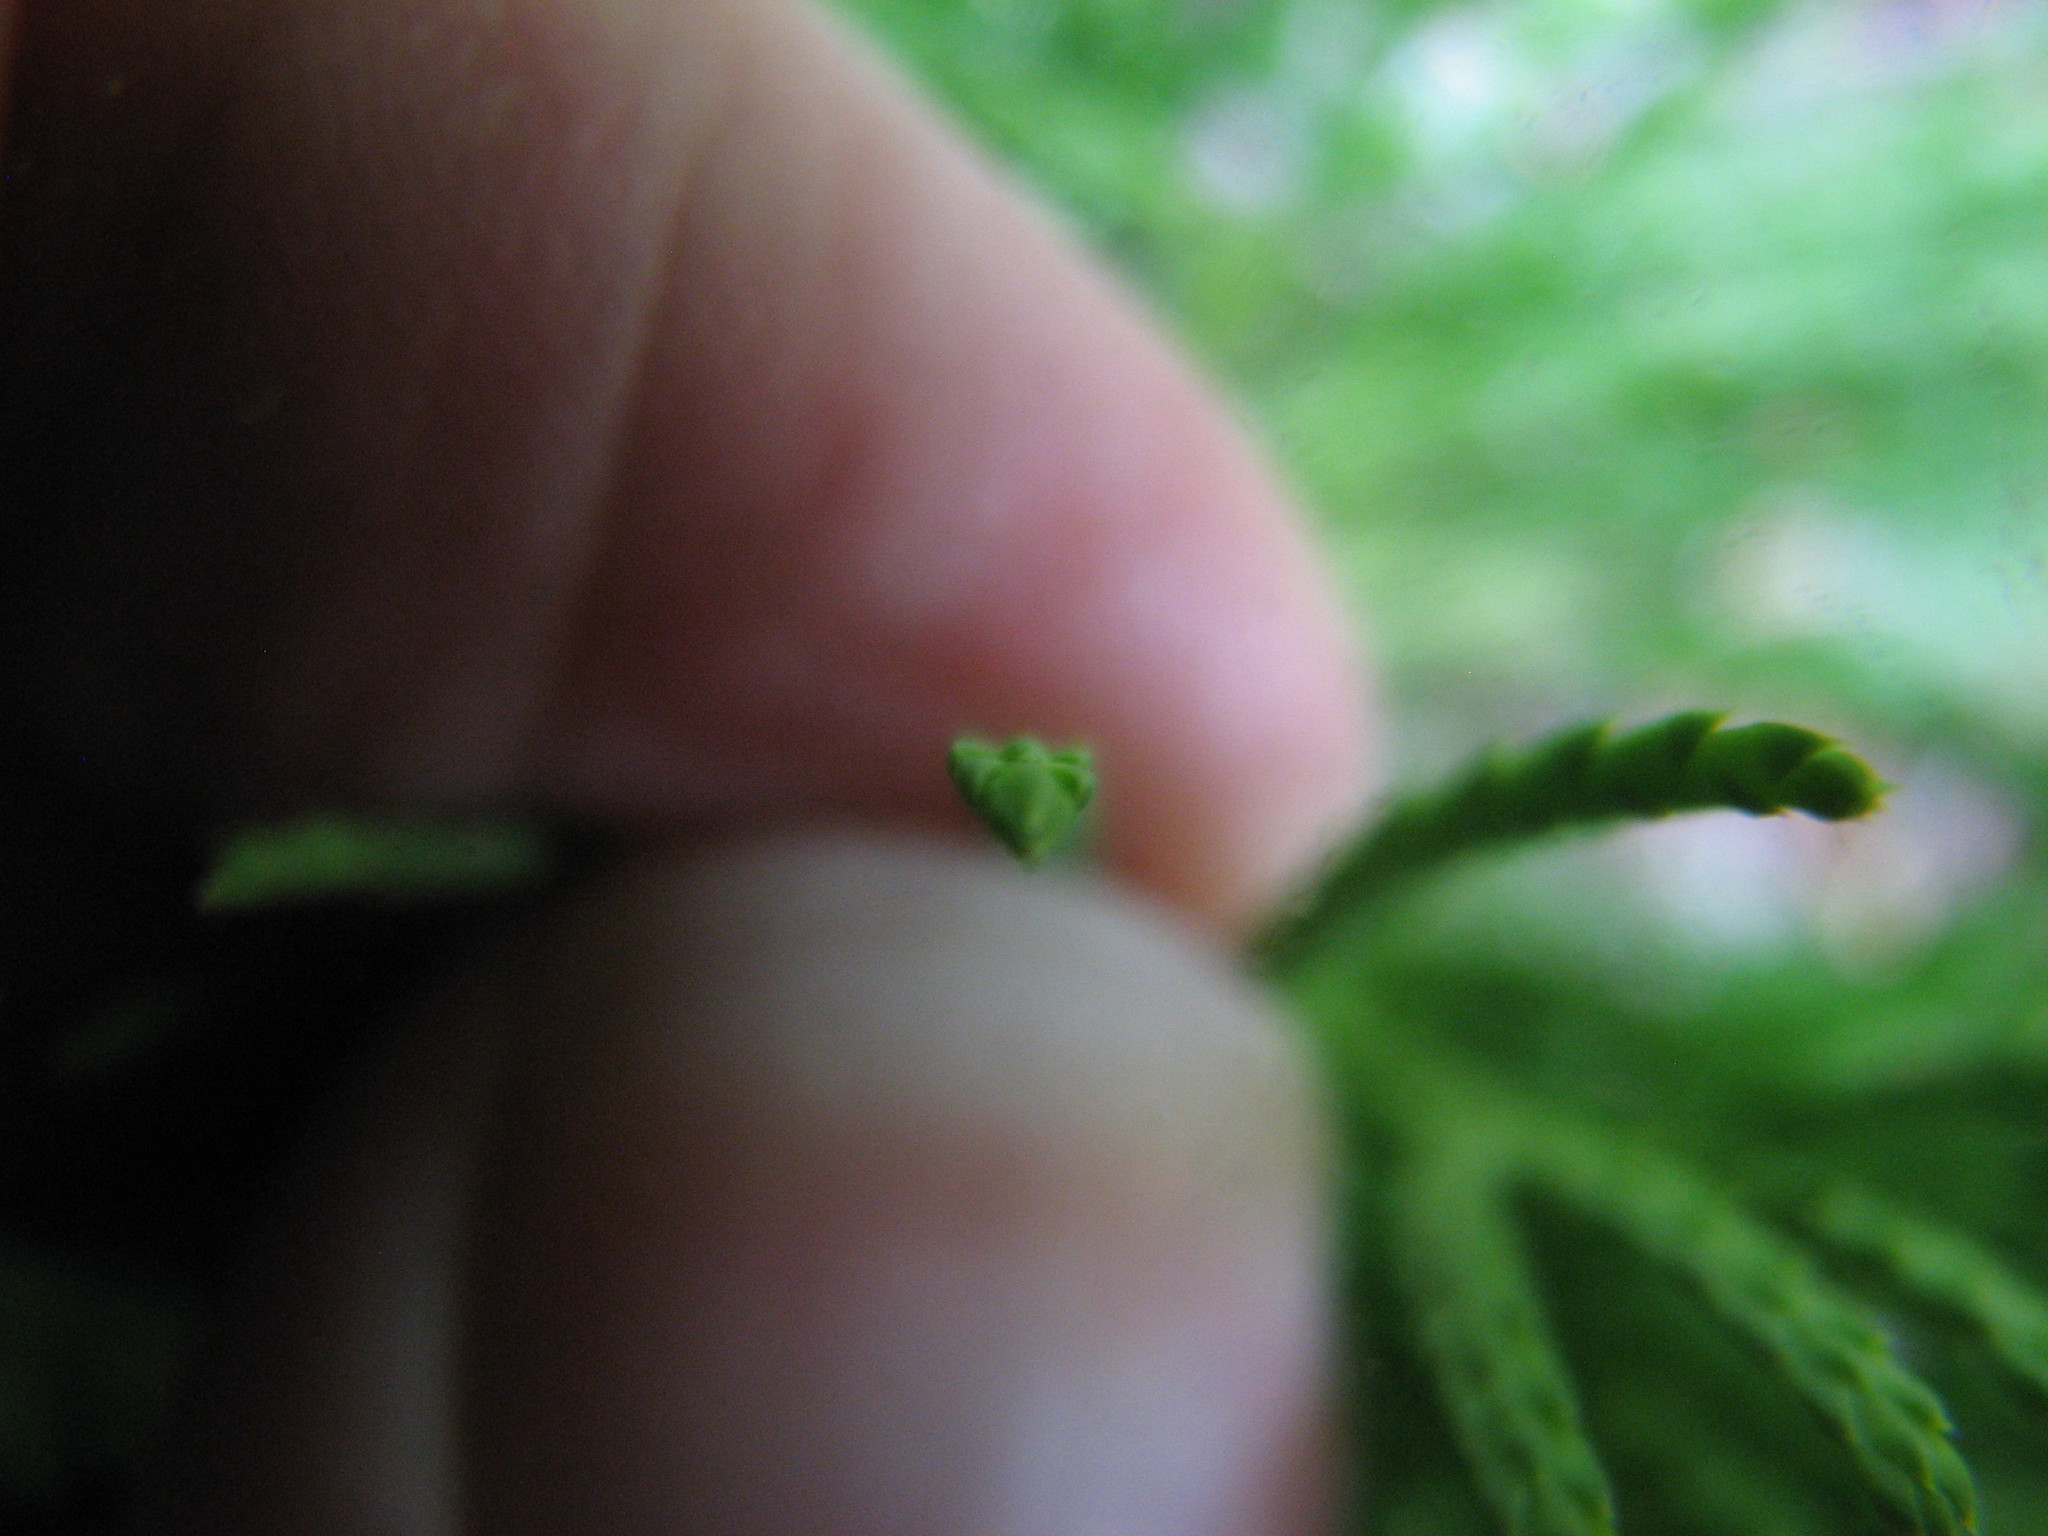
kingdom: Plantae
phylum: Tracheophyta
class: Lycopodiopsida
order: Lycopodiales
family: Lycopodiaceae
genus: Diphasiastrum
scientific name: Diphasiastrum tristachyum
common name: Blue ground-cedar
